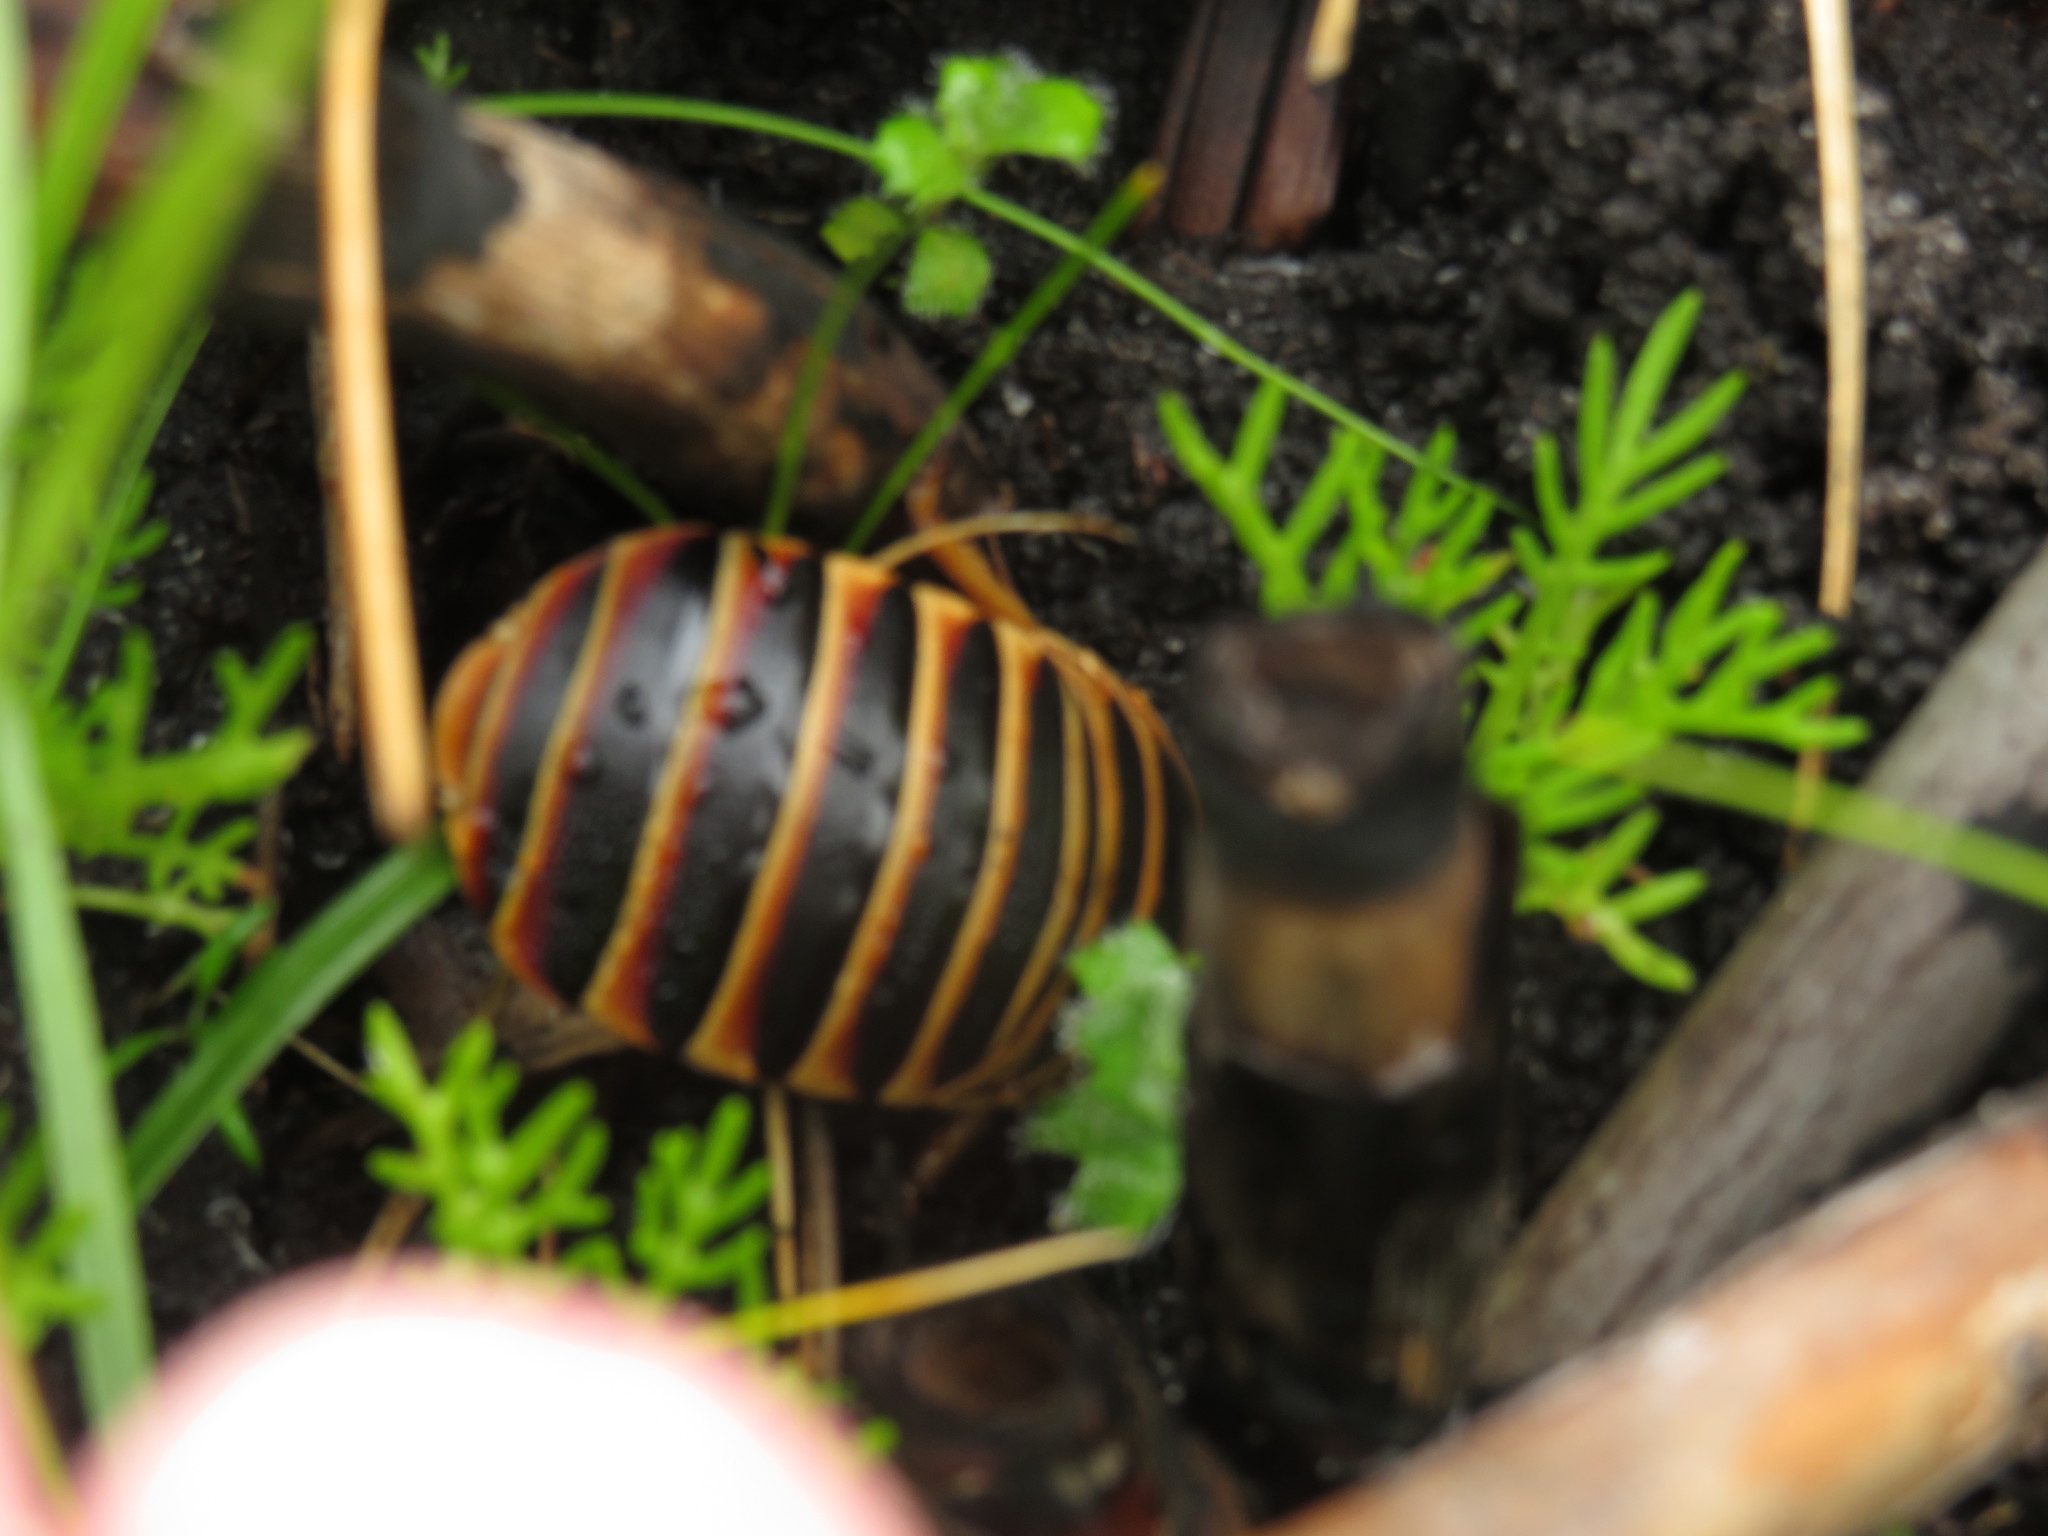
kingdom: Animalia
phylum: Arthropoda
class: Insecta
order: Blattodea
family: Blaberidae
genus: Aptera
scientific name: Aptera fusca
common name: Cape mountain cockroach
